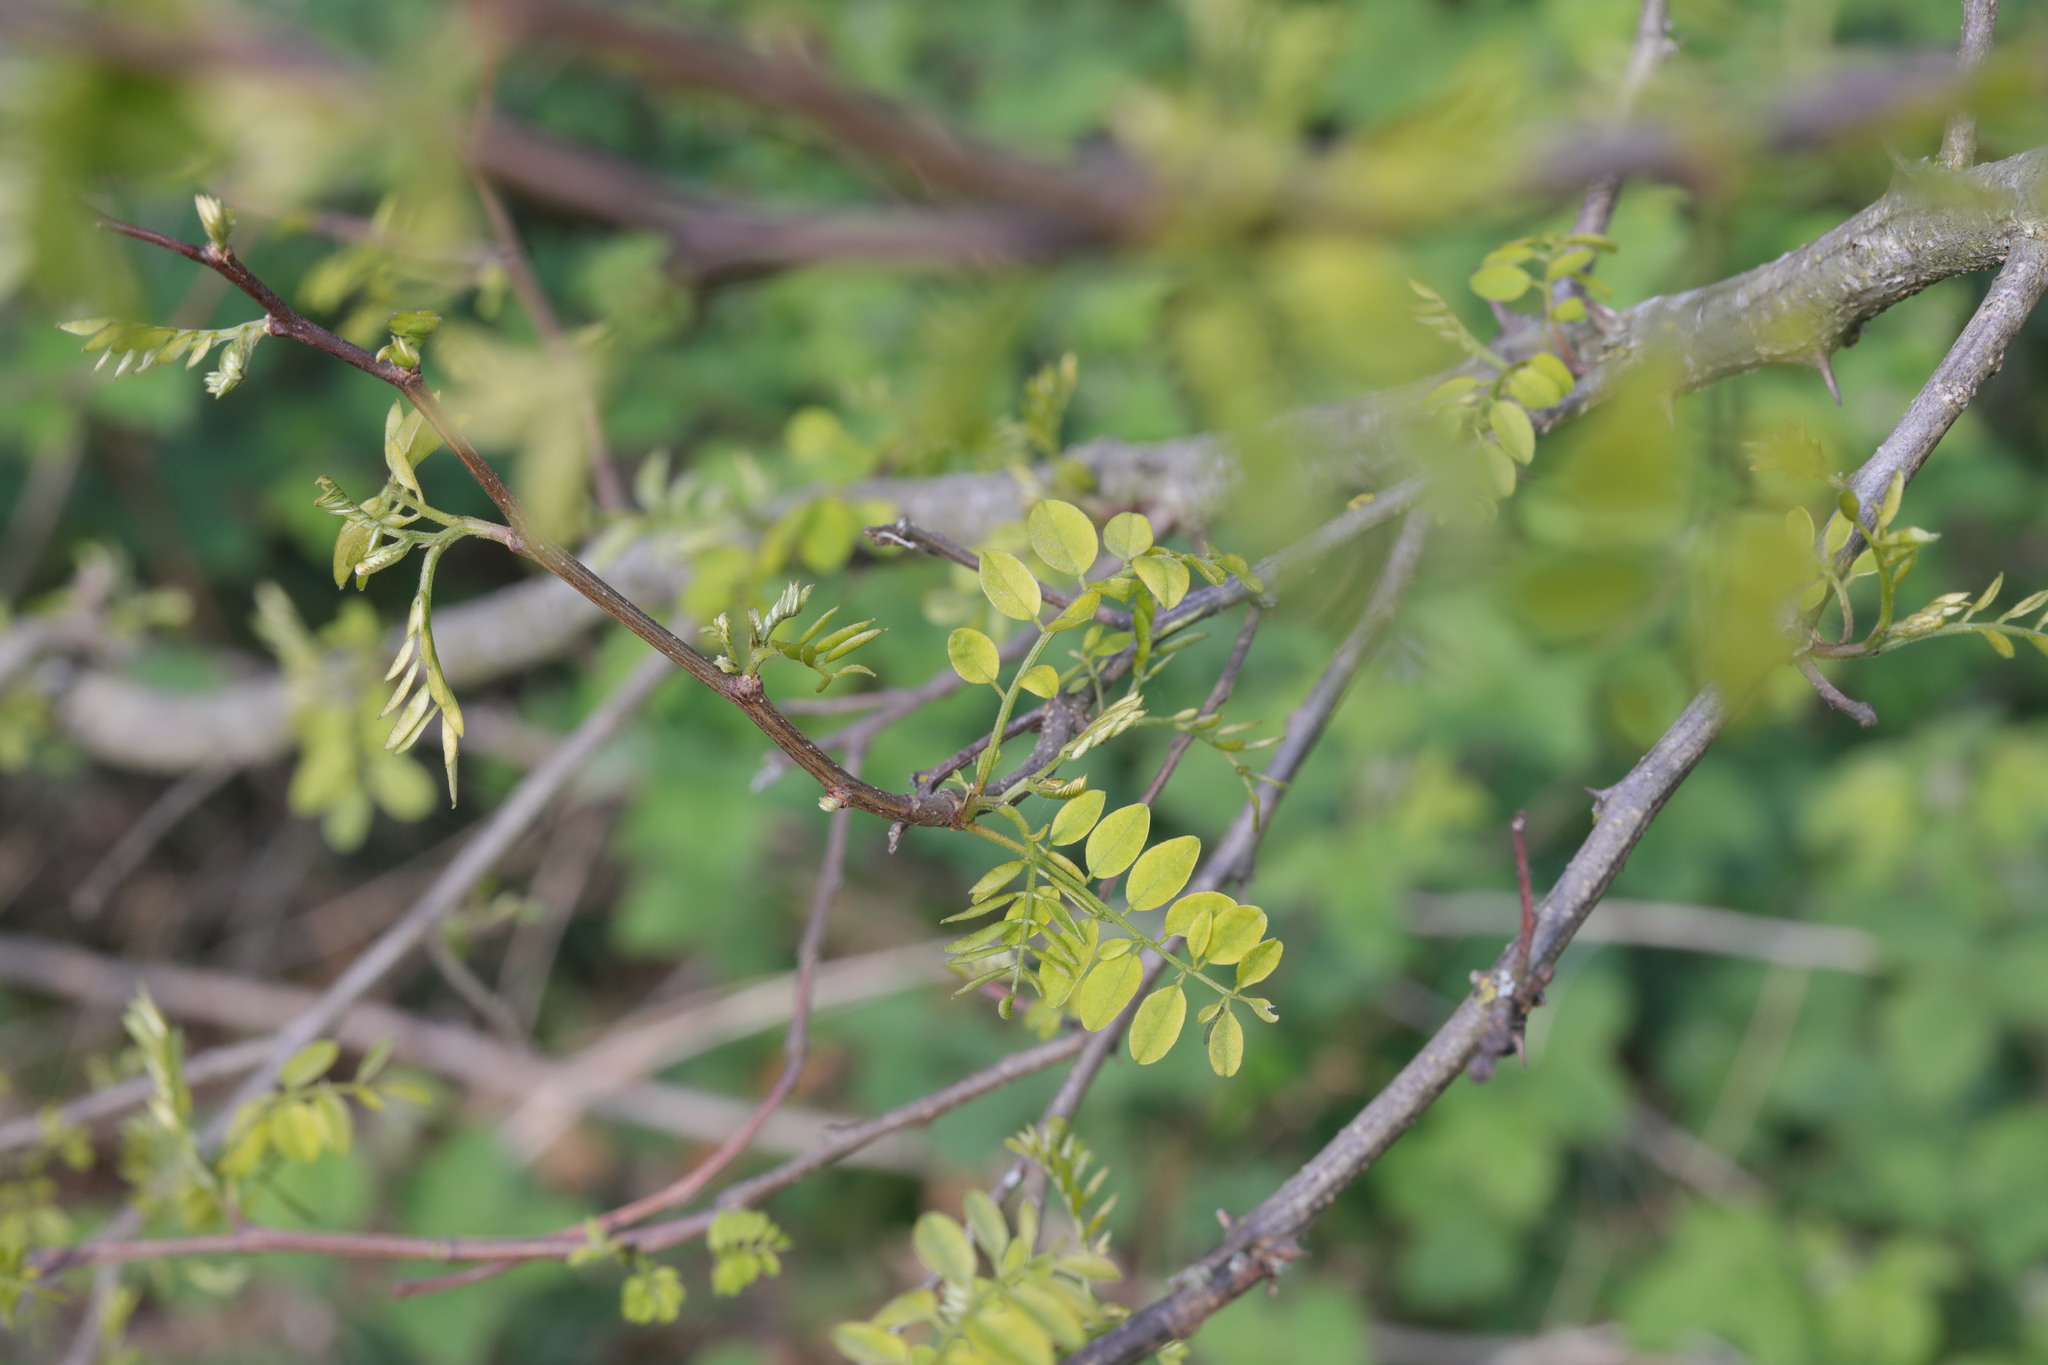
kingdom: Plantae
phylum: Tracheophyta
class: Magnoliopsida
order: Fabales
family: Fabaceae
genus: Robinia
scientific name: Robinia pseudoacacia
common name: Black locust
